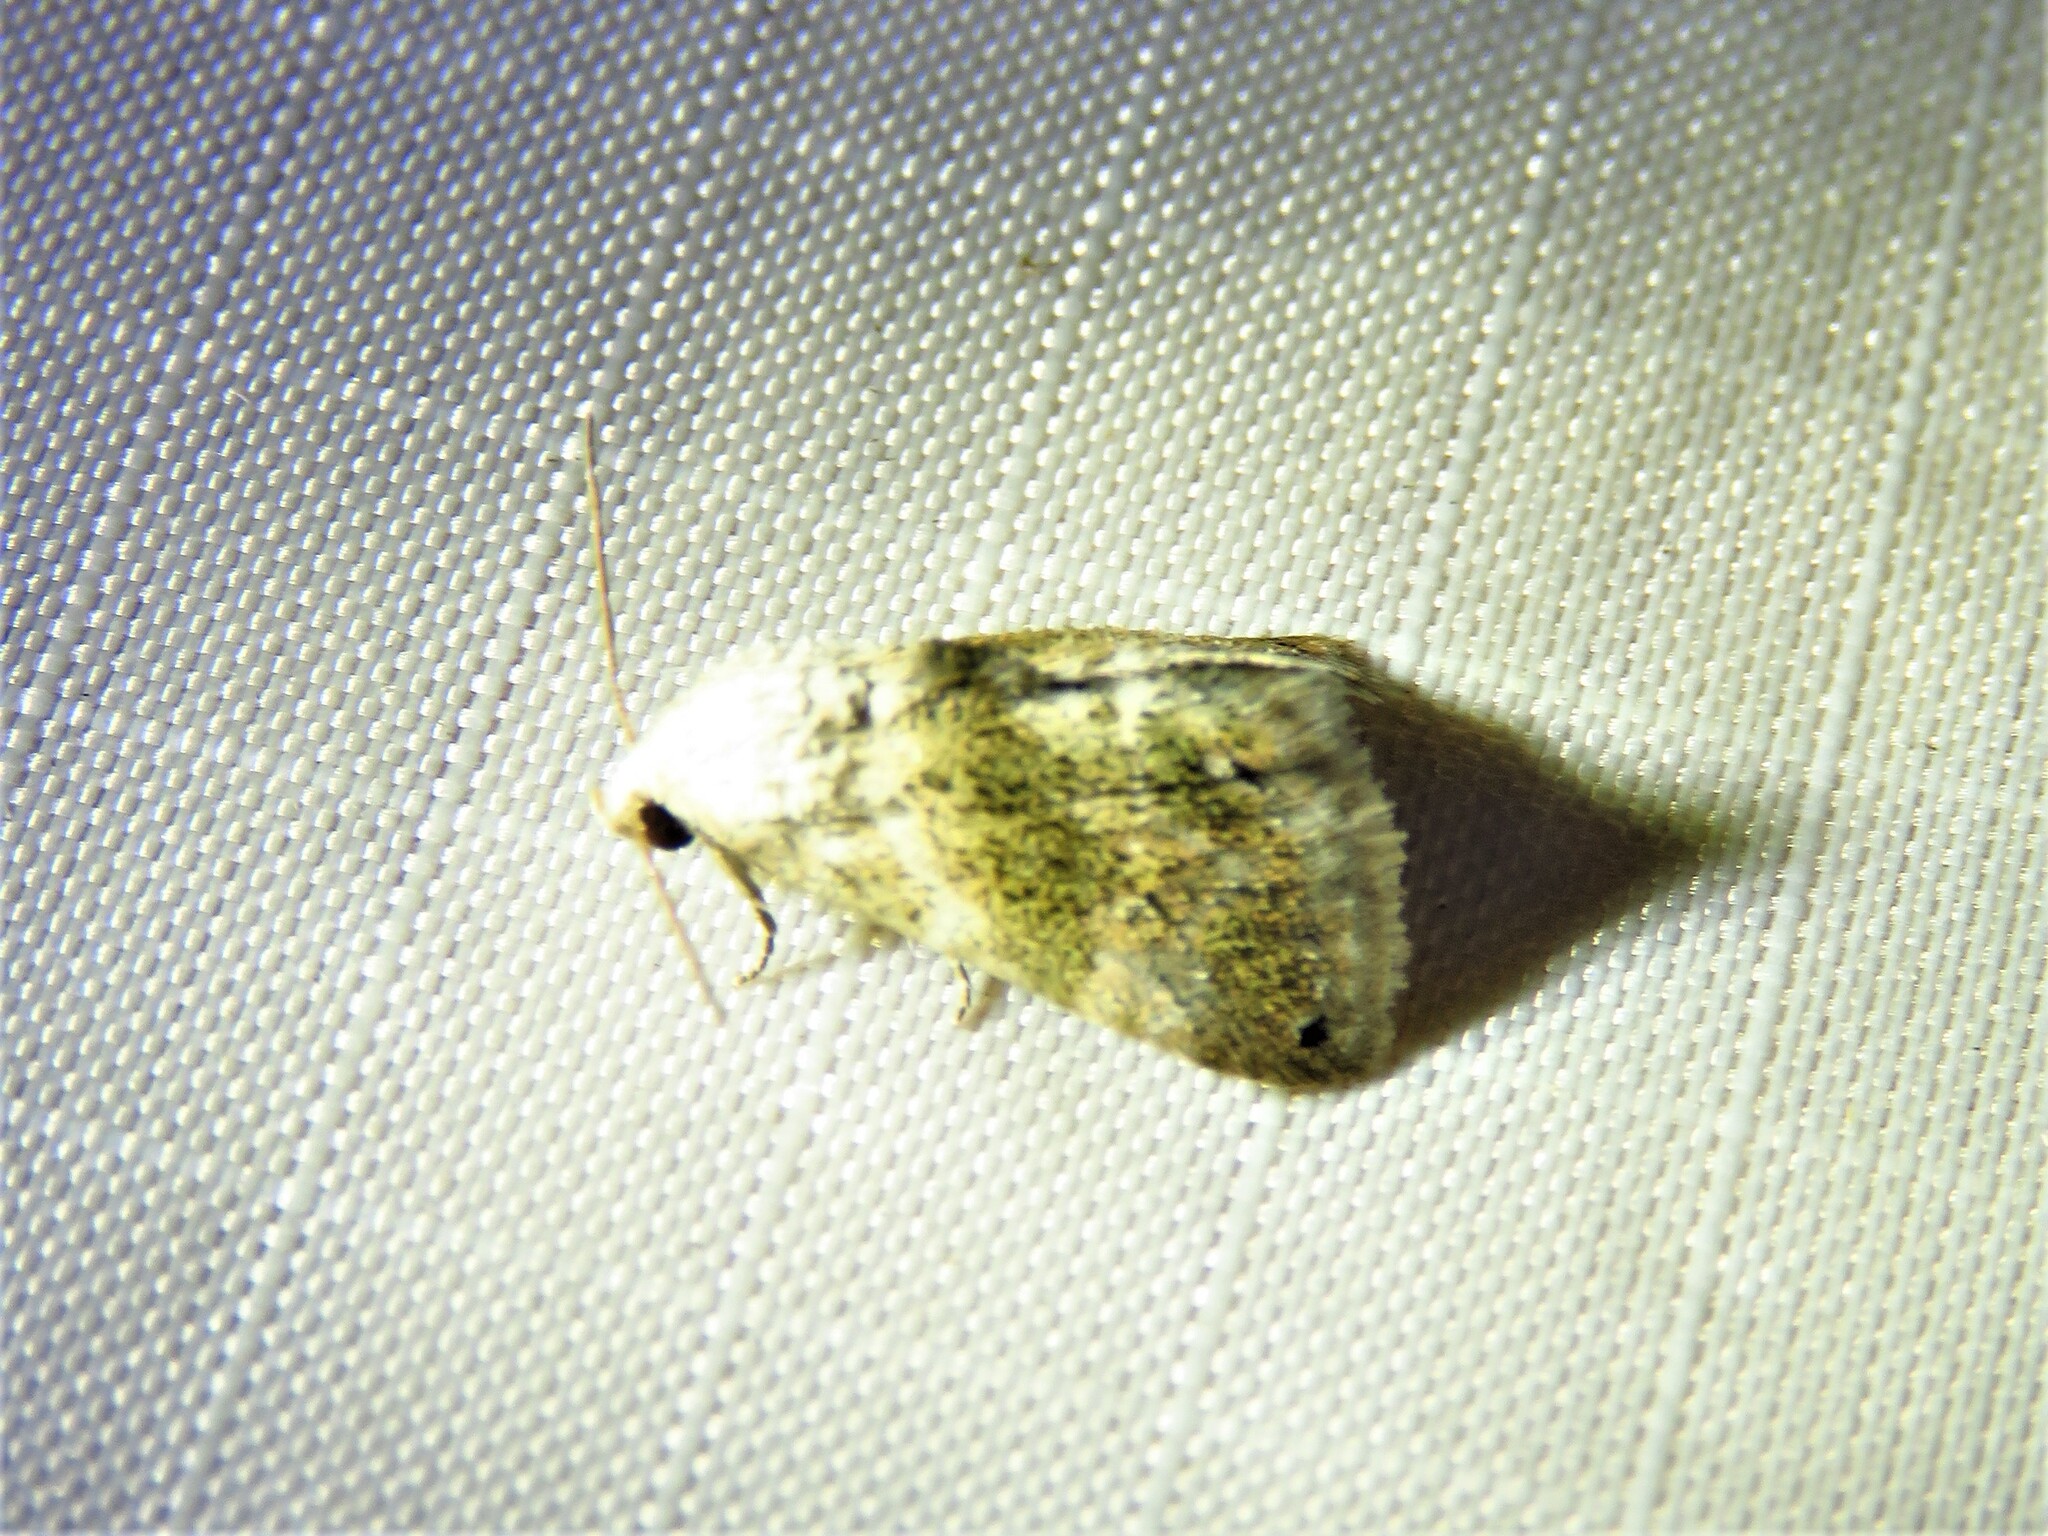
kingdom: Animalia
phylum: Arthropoda
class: Insecta
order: Lepidoptera
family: Noctuidae
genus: Eublemma
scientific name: Eublemma minima
